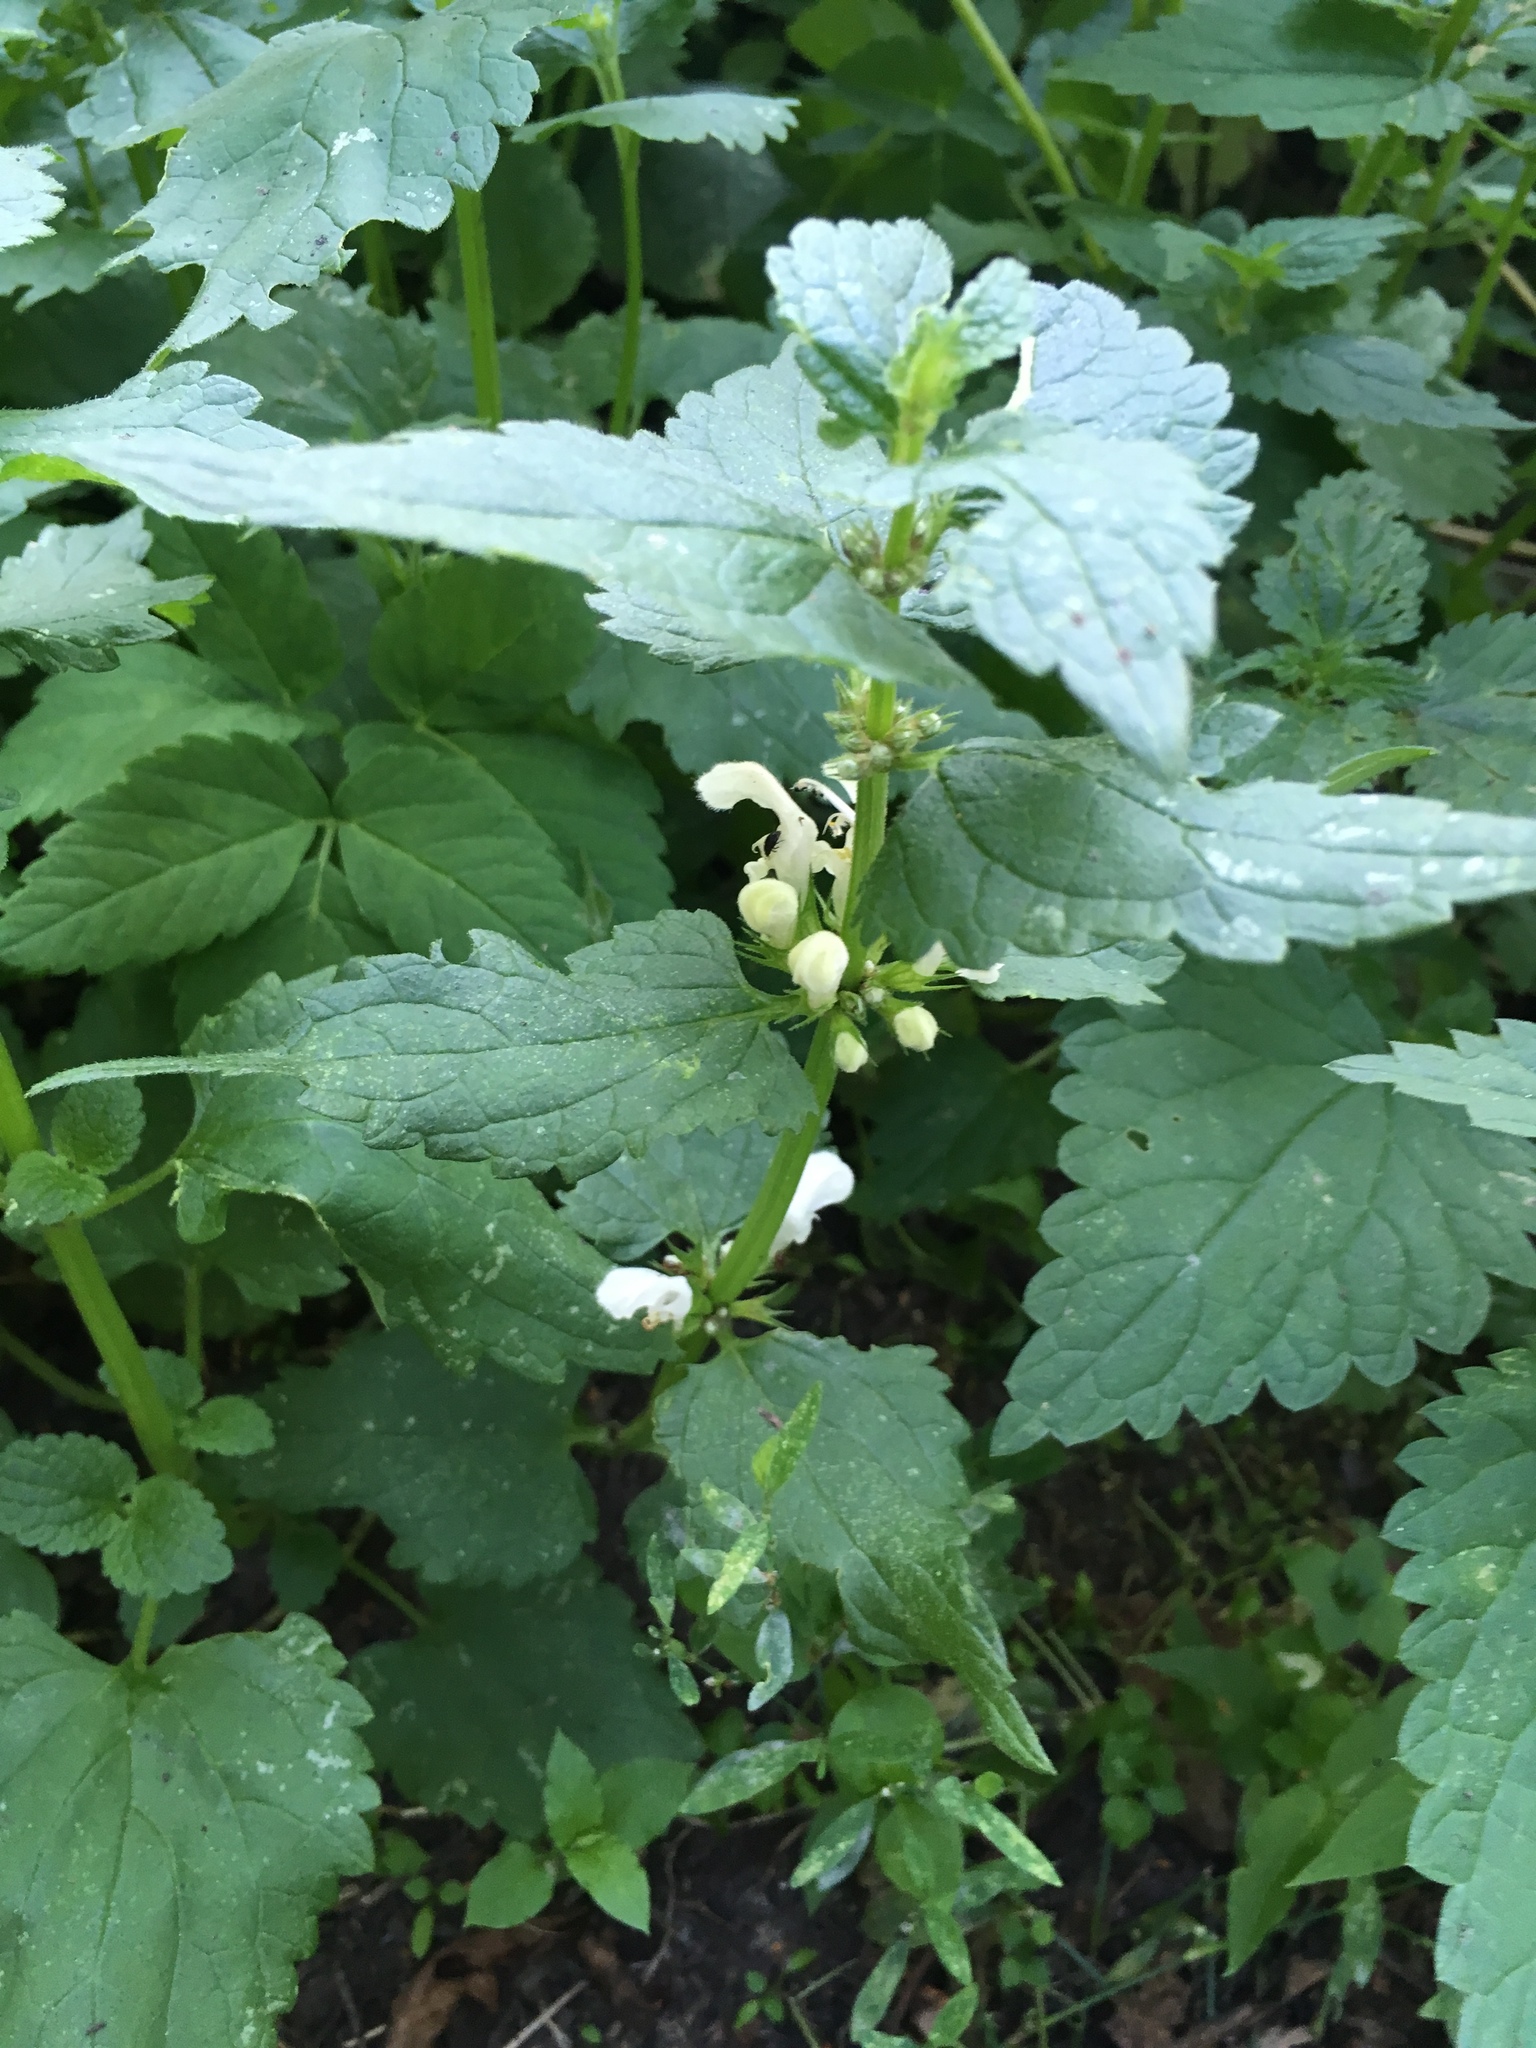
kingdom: Plantae
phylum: Tracheophyta
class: Magnoliopsida
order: Lamiales
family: Lamiaceae
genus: Lamium
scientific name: Lamium album
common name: White dead-nettle
